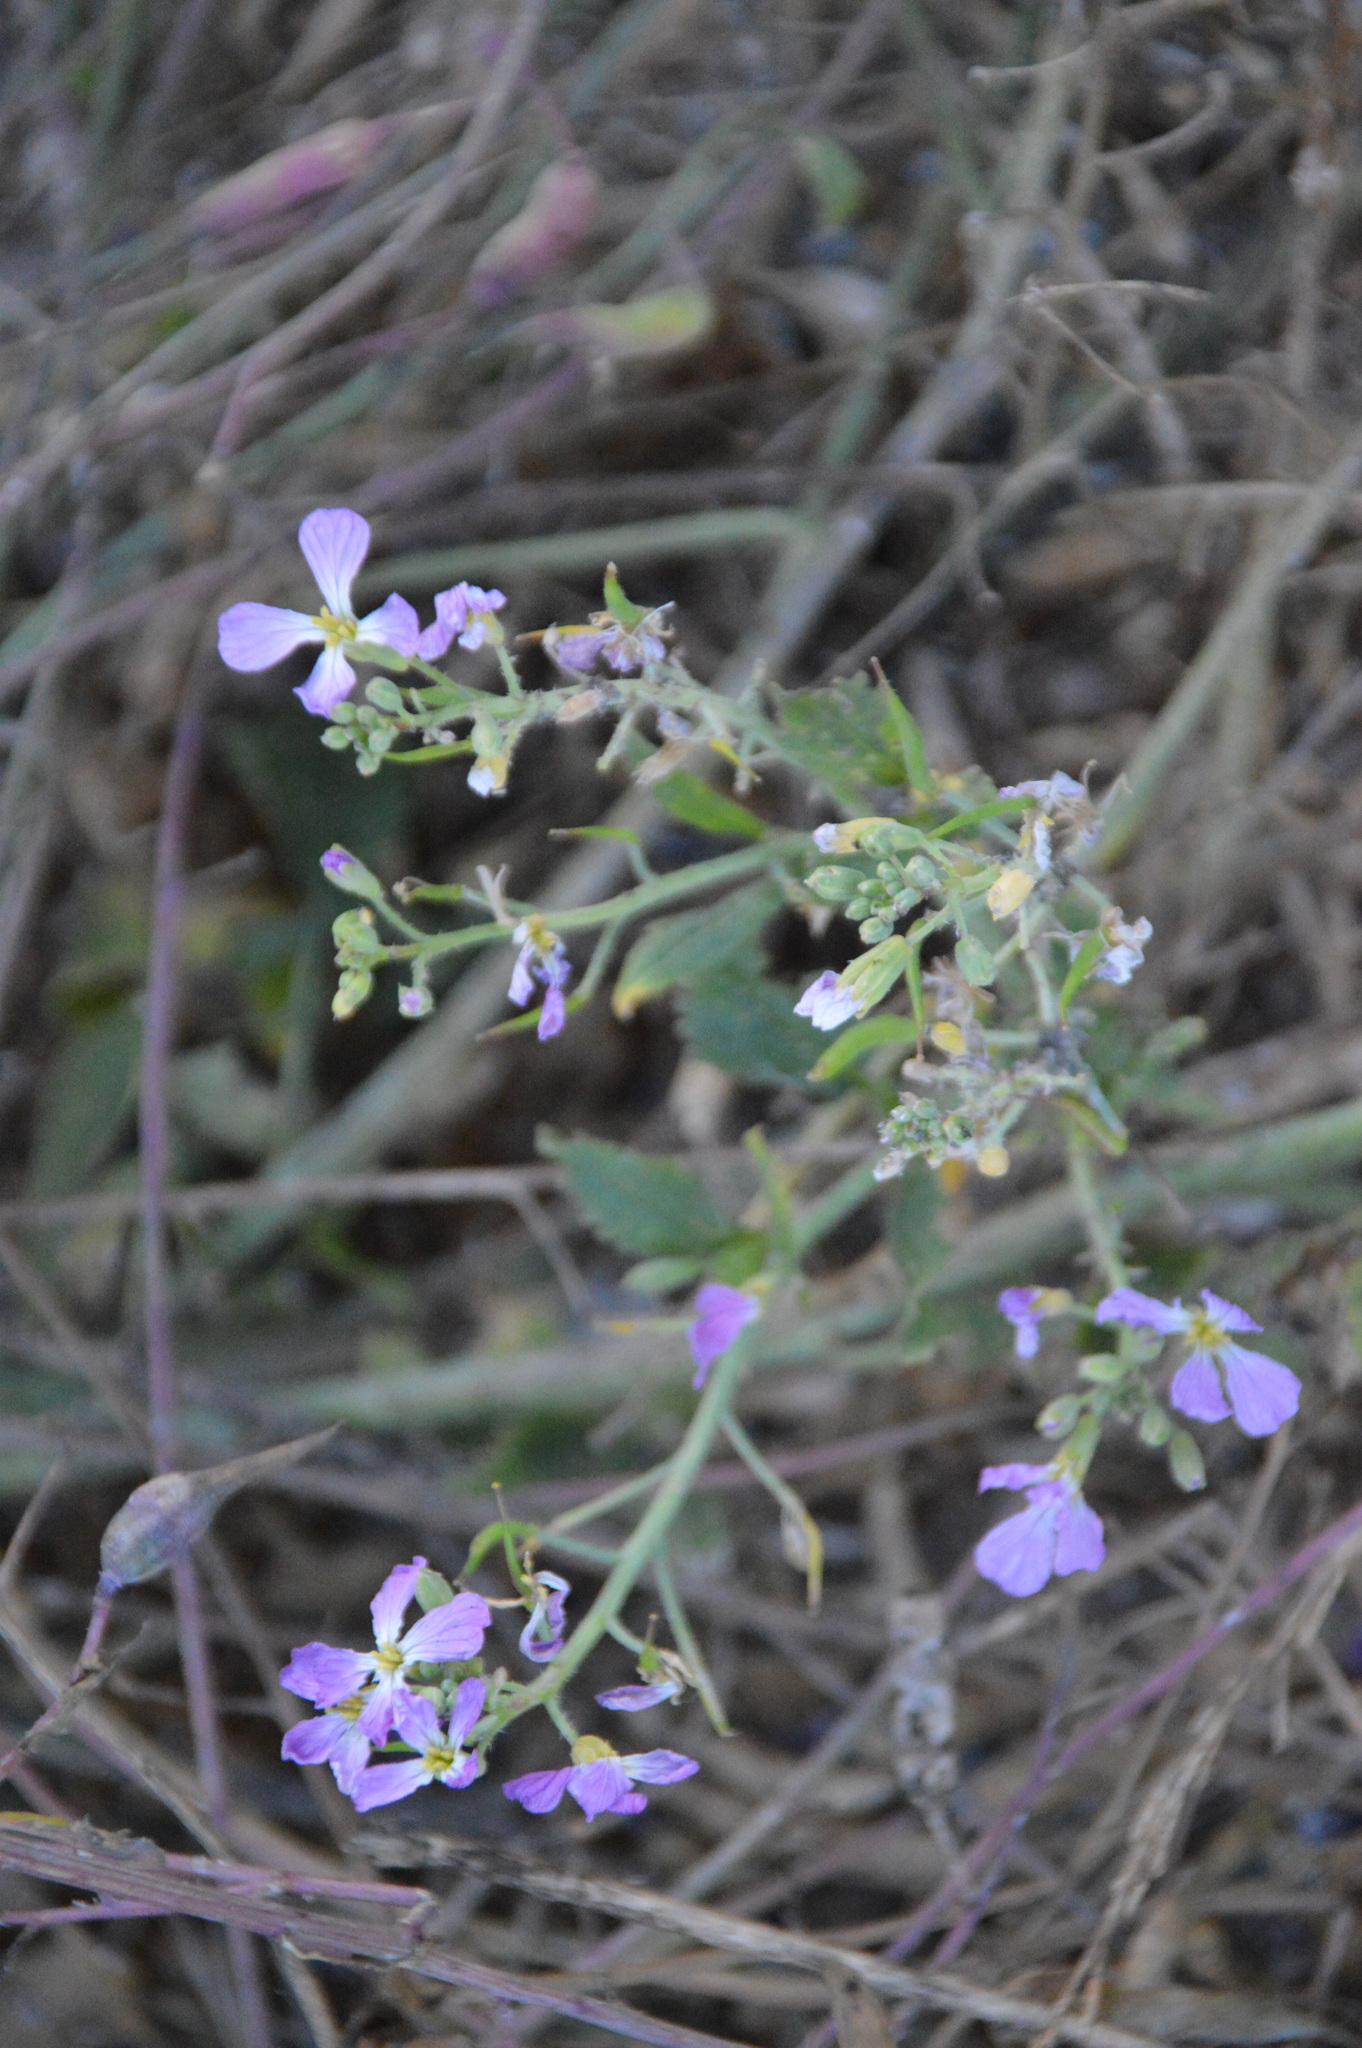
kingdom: Plantae
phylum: Tracheophyta
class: Magnoliopsida
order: Brassicales
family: Brassicaceae
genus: Raphanus
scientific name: Raphanus sativus
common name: Cultivated radish
